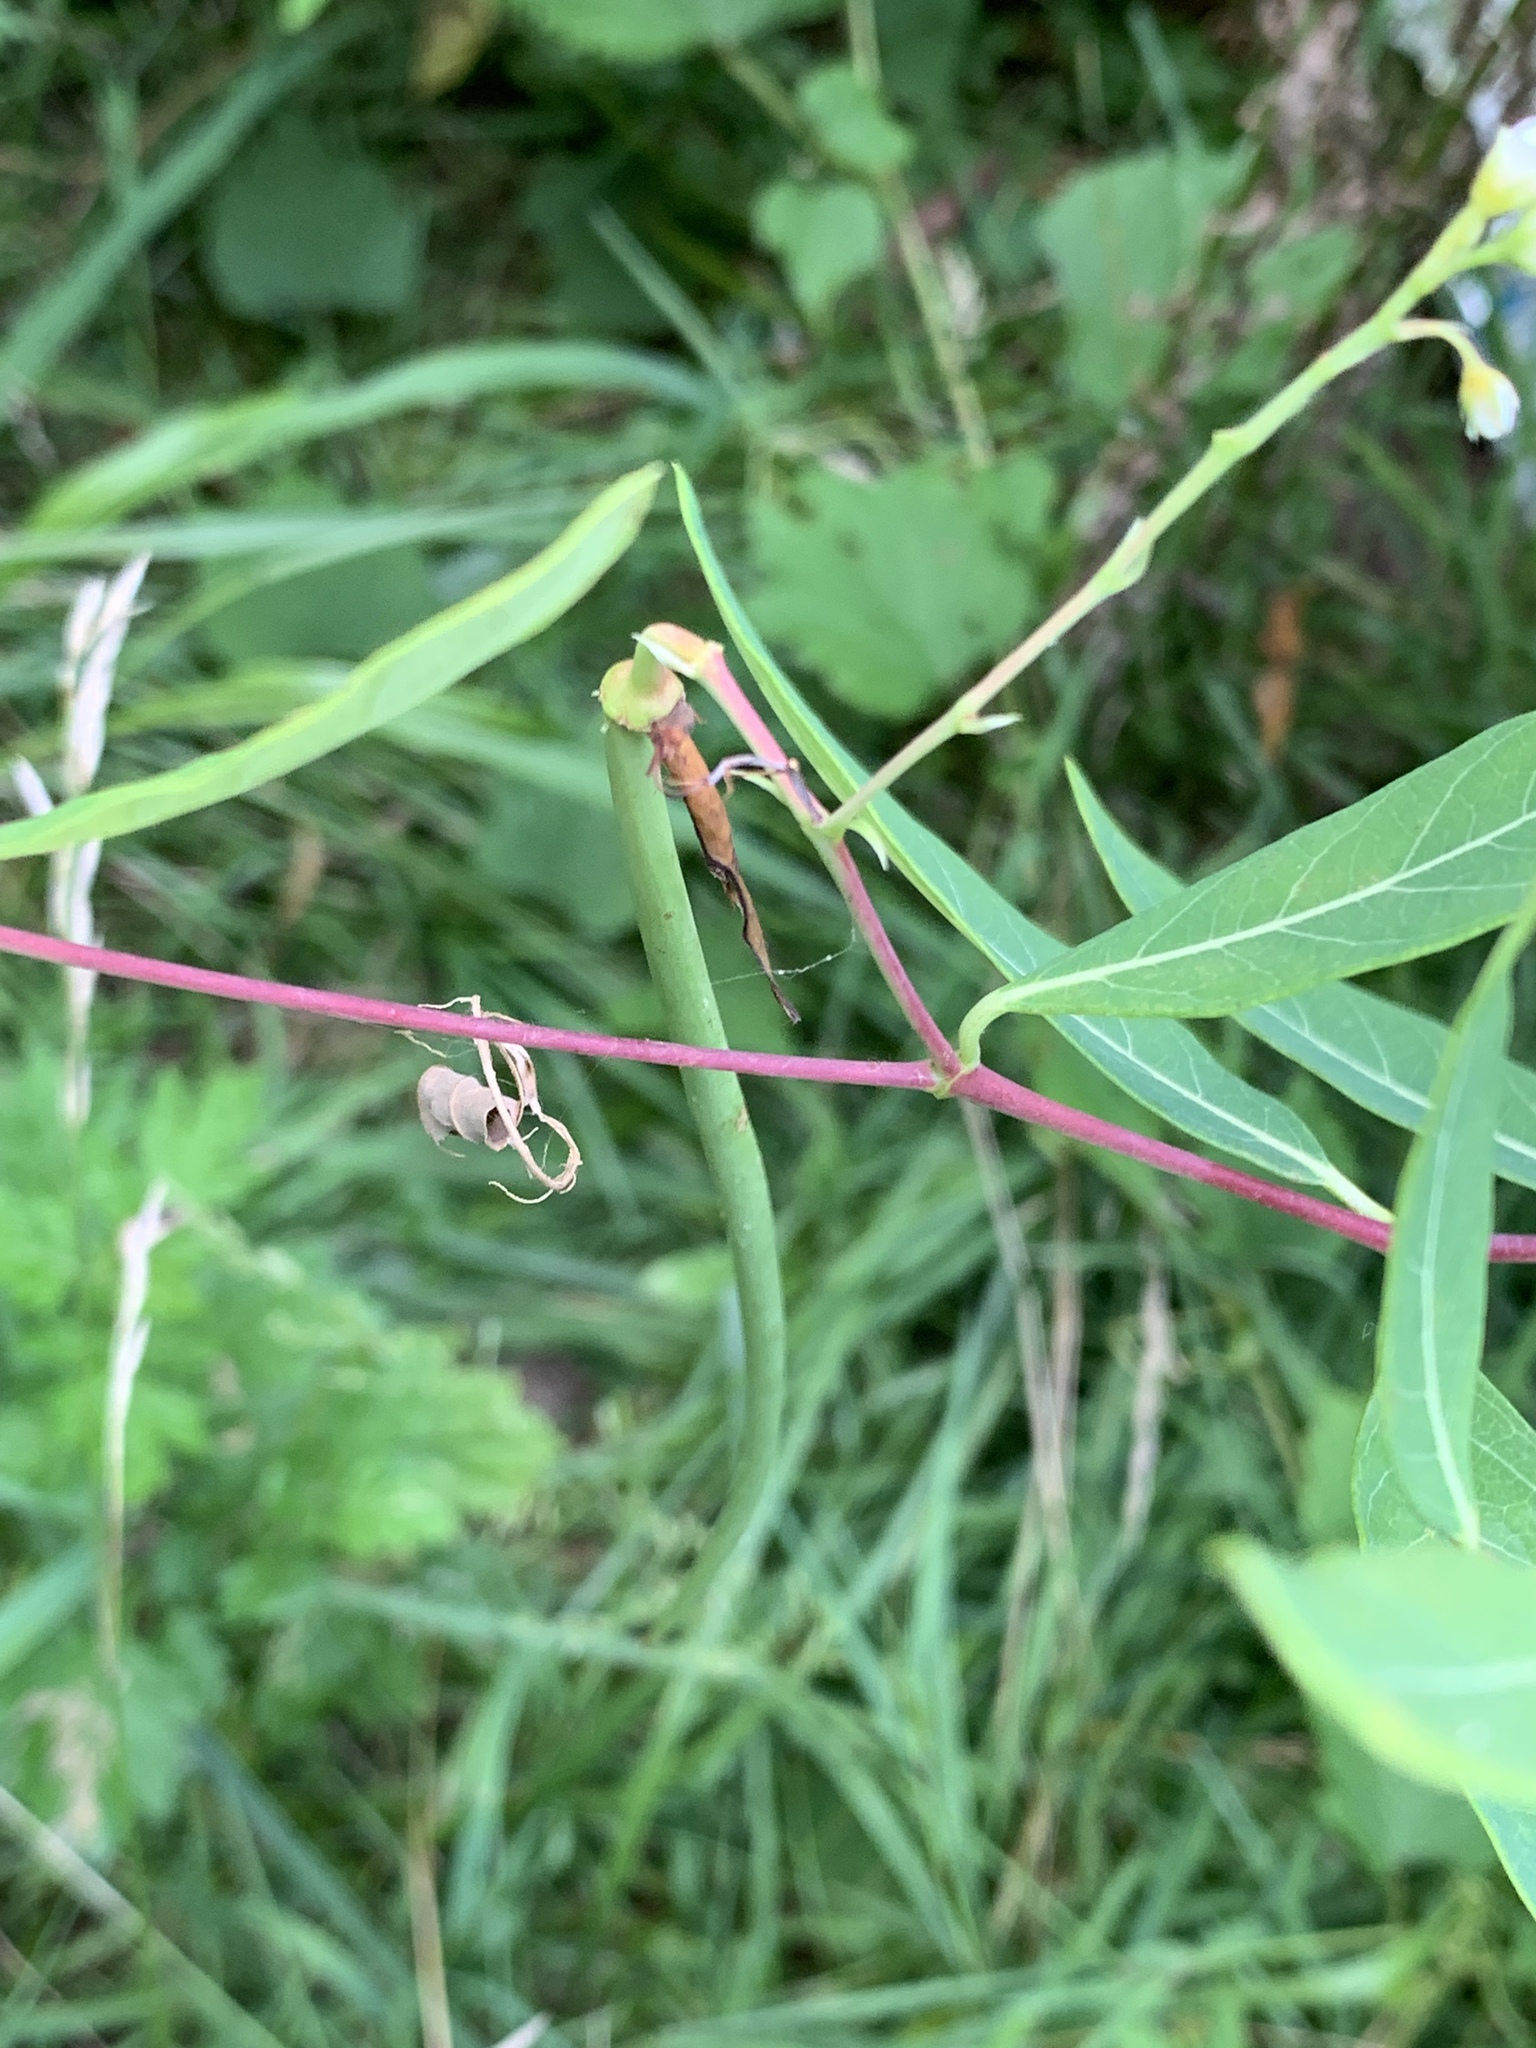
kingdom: Plantae
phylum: Tracheophyta
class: Magnoliopsida
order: Gentianales
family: Apocynaceae
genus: Apocynum
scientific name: Apocynum cannabinum
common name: Hemp dogbane
